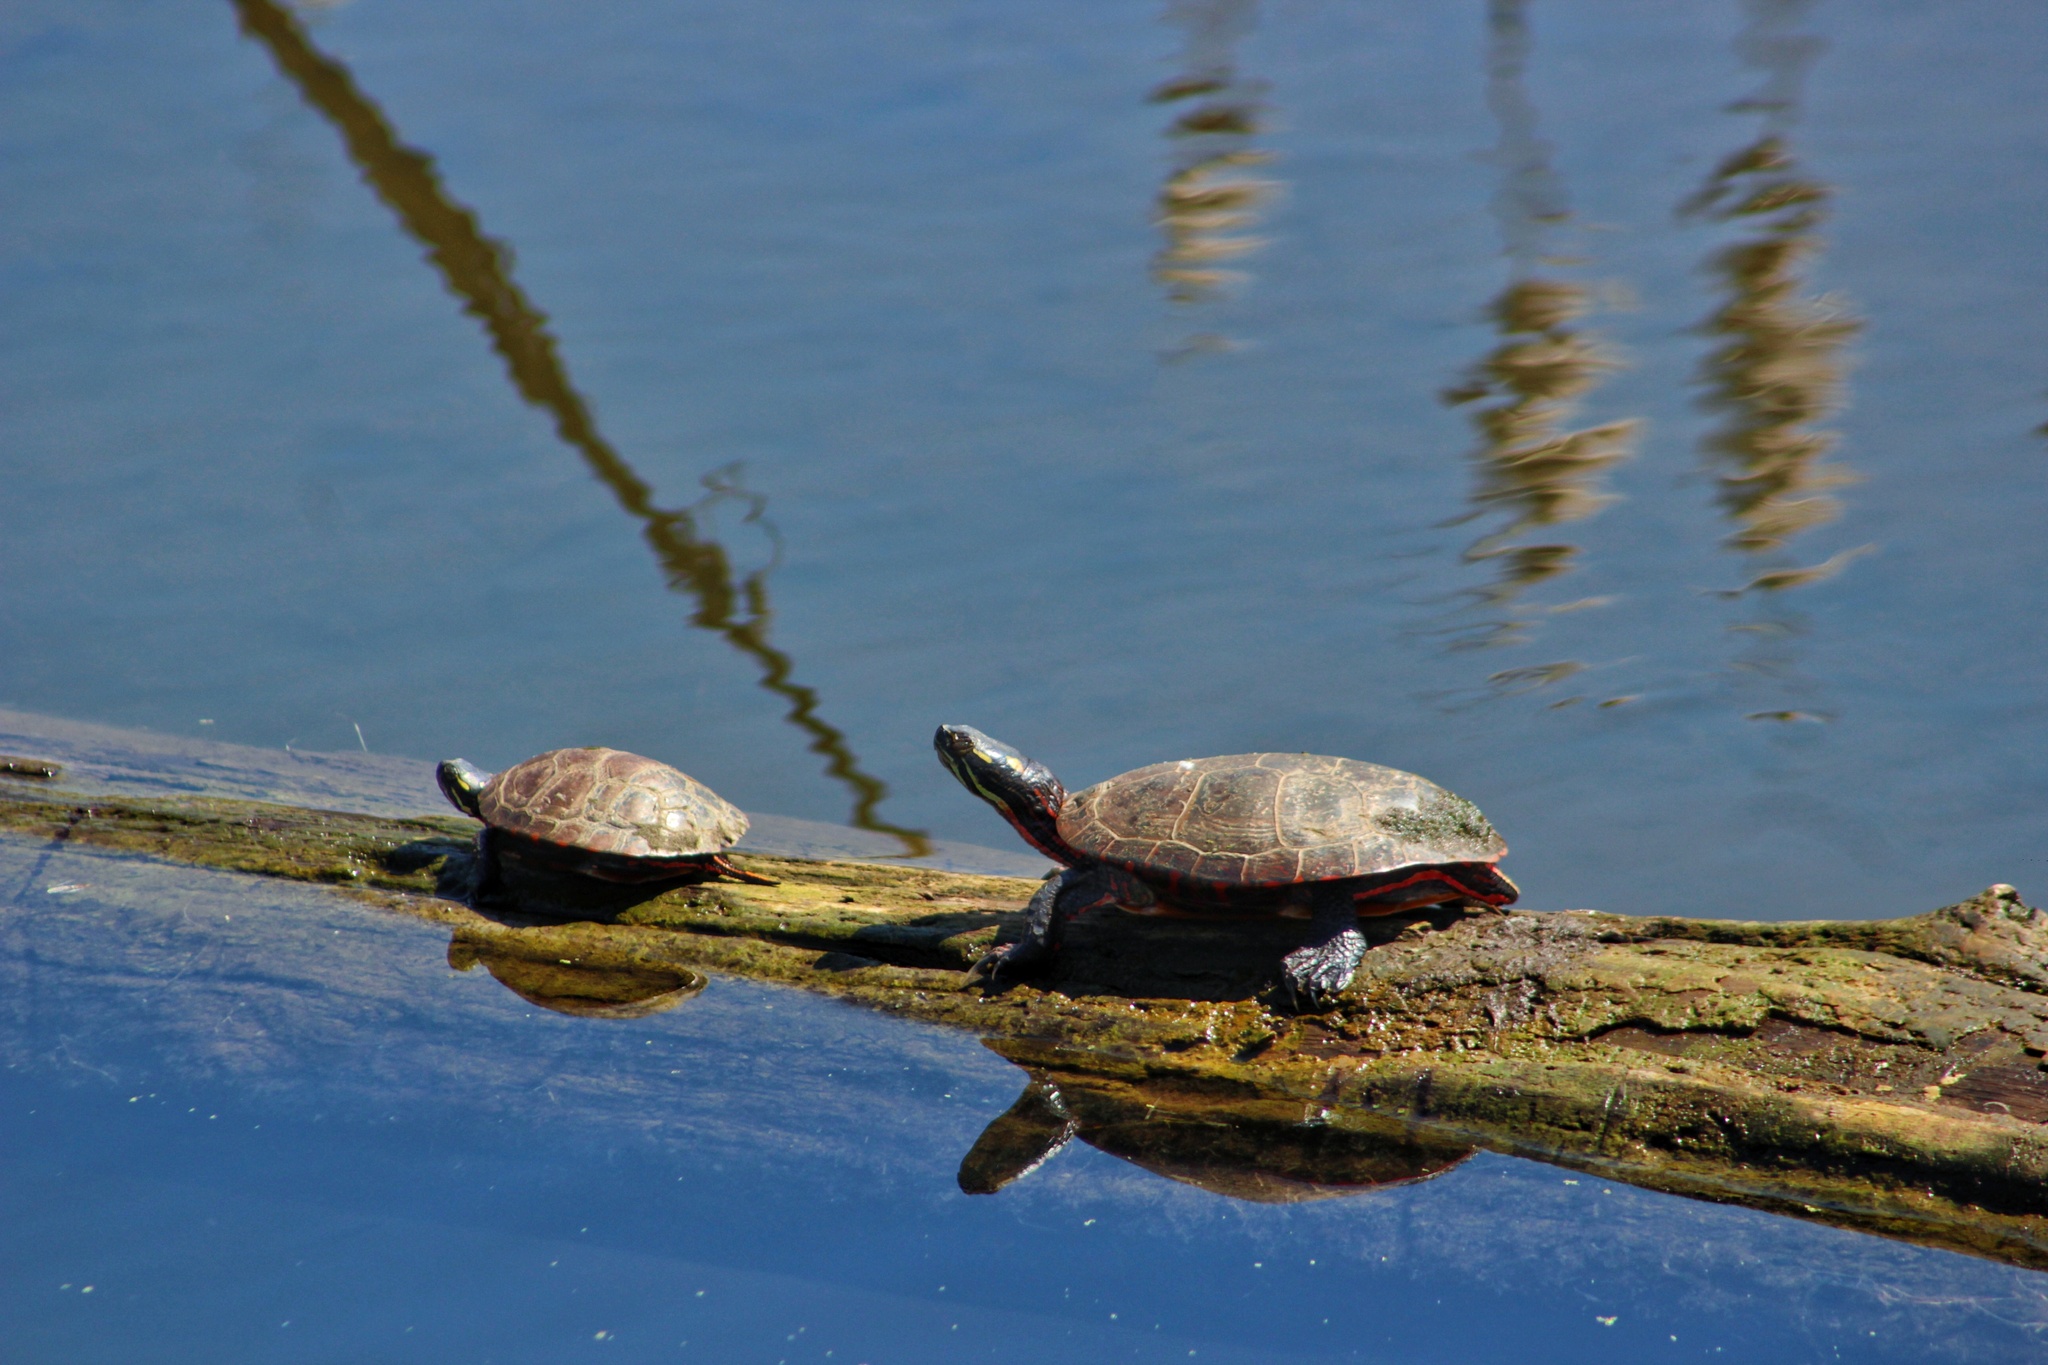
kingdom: Animalia
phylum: Chordata
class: Testudines
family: Emydidae
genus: Chrysemys
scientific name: Chrysemys picta
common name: Painted turtle
